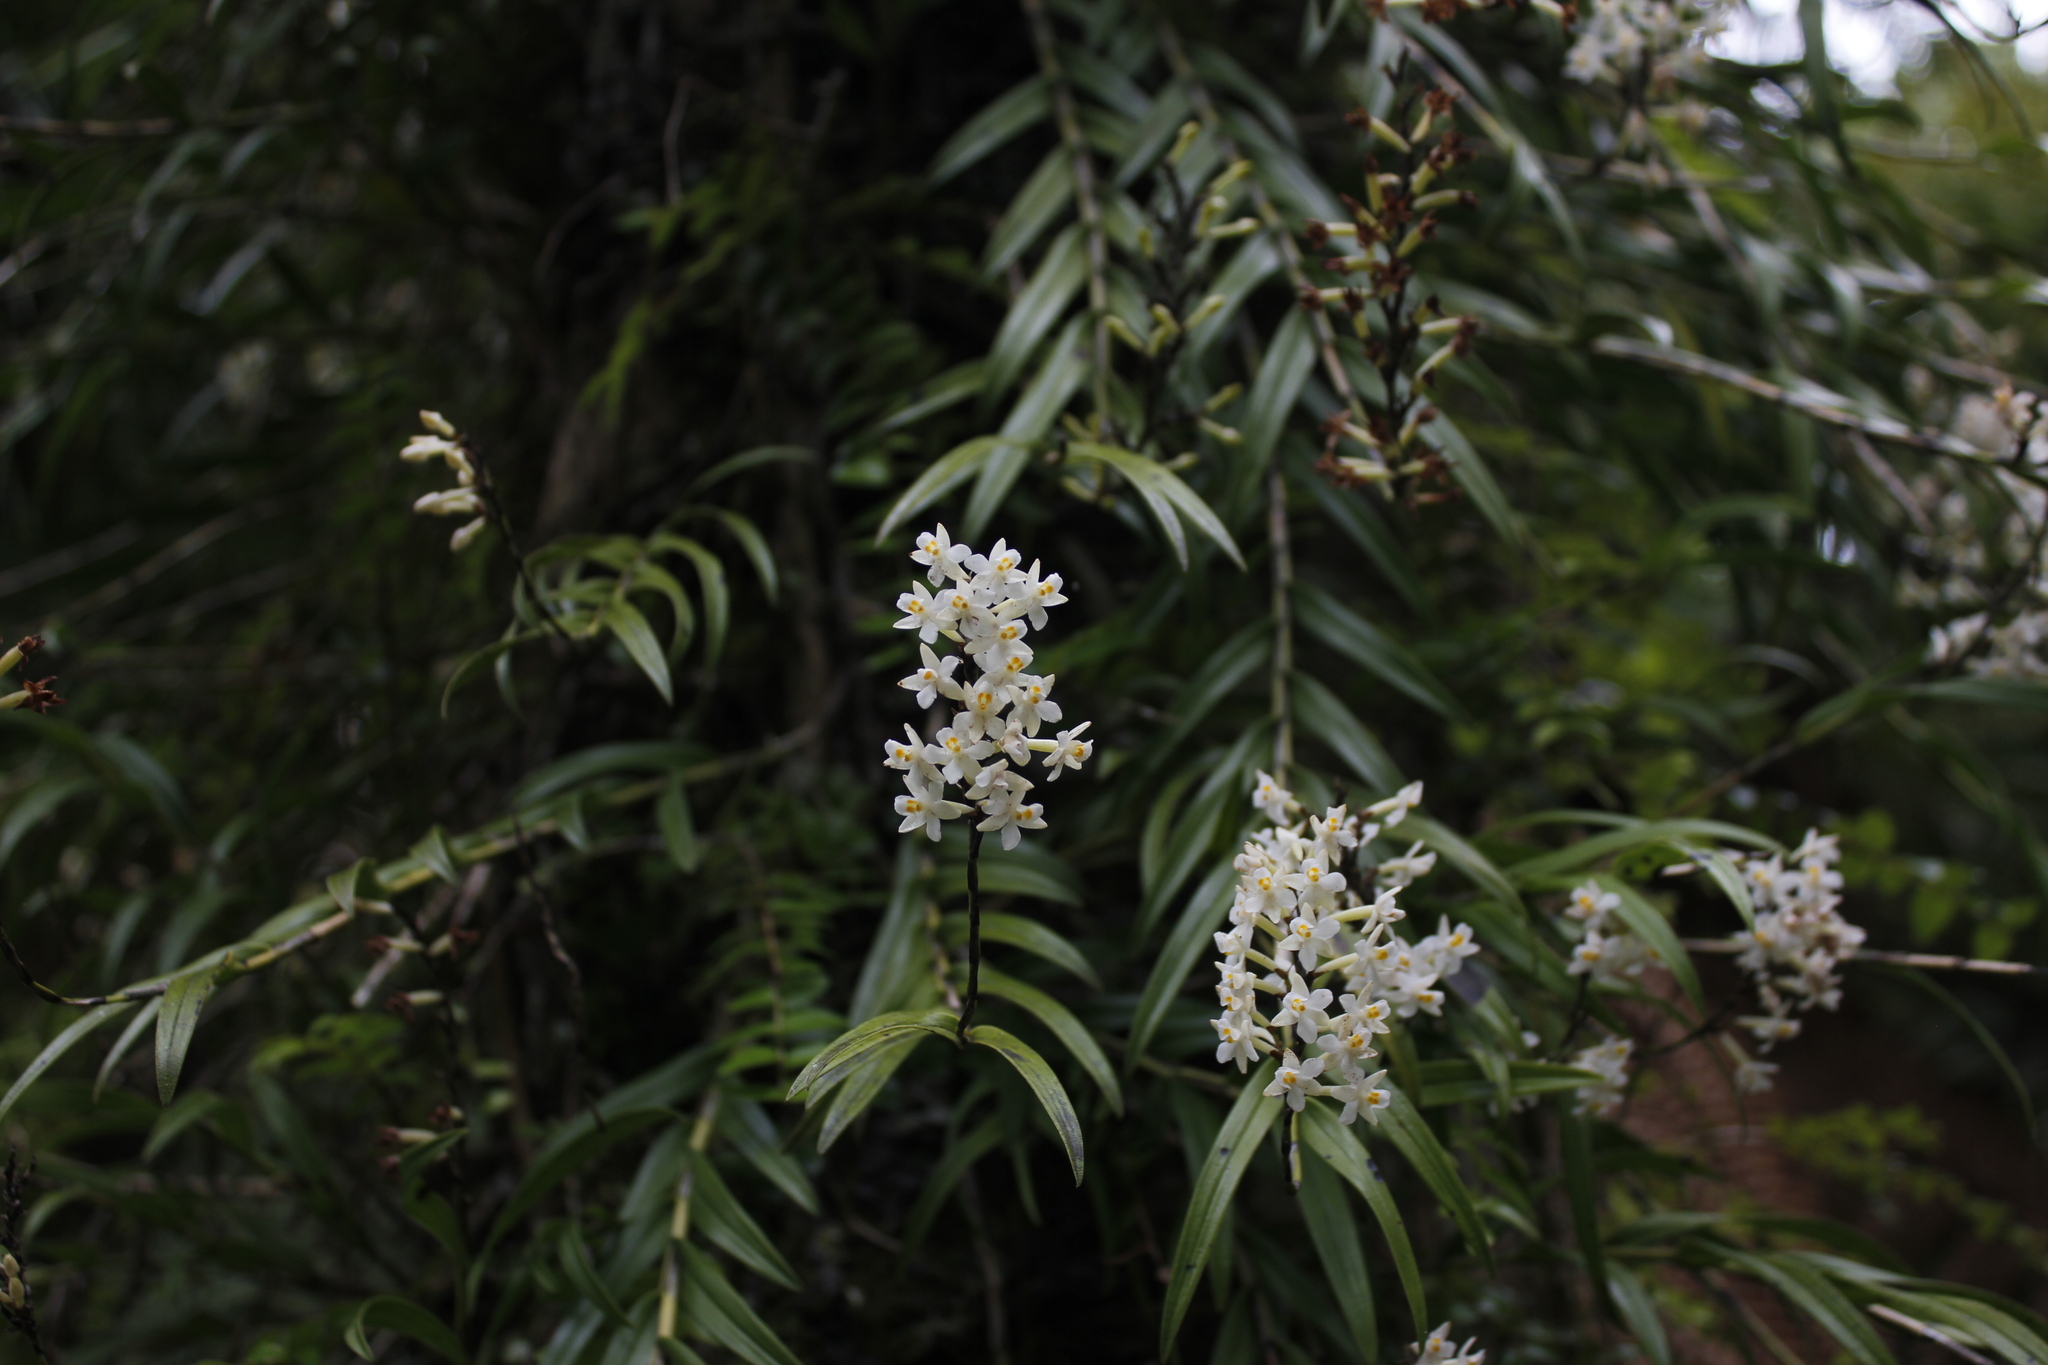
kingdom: Plantae
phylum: Tracheophyta
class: Liliopsida
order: Asparagales
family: Orchidaceae
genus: Earina
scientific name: Earina autumnalis
